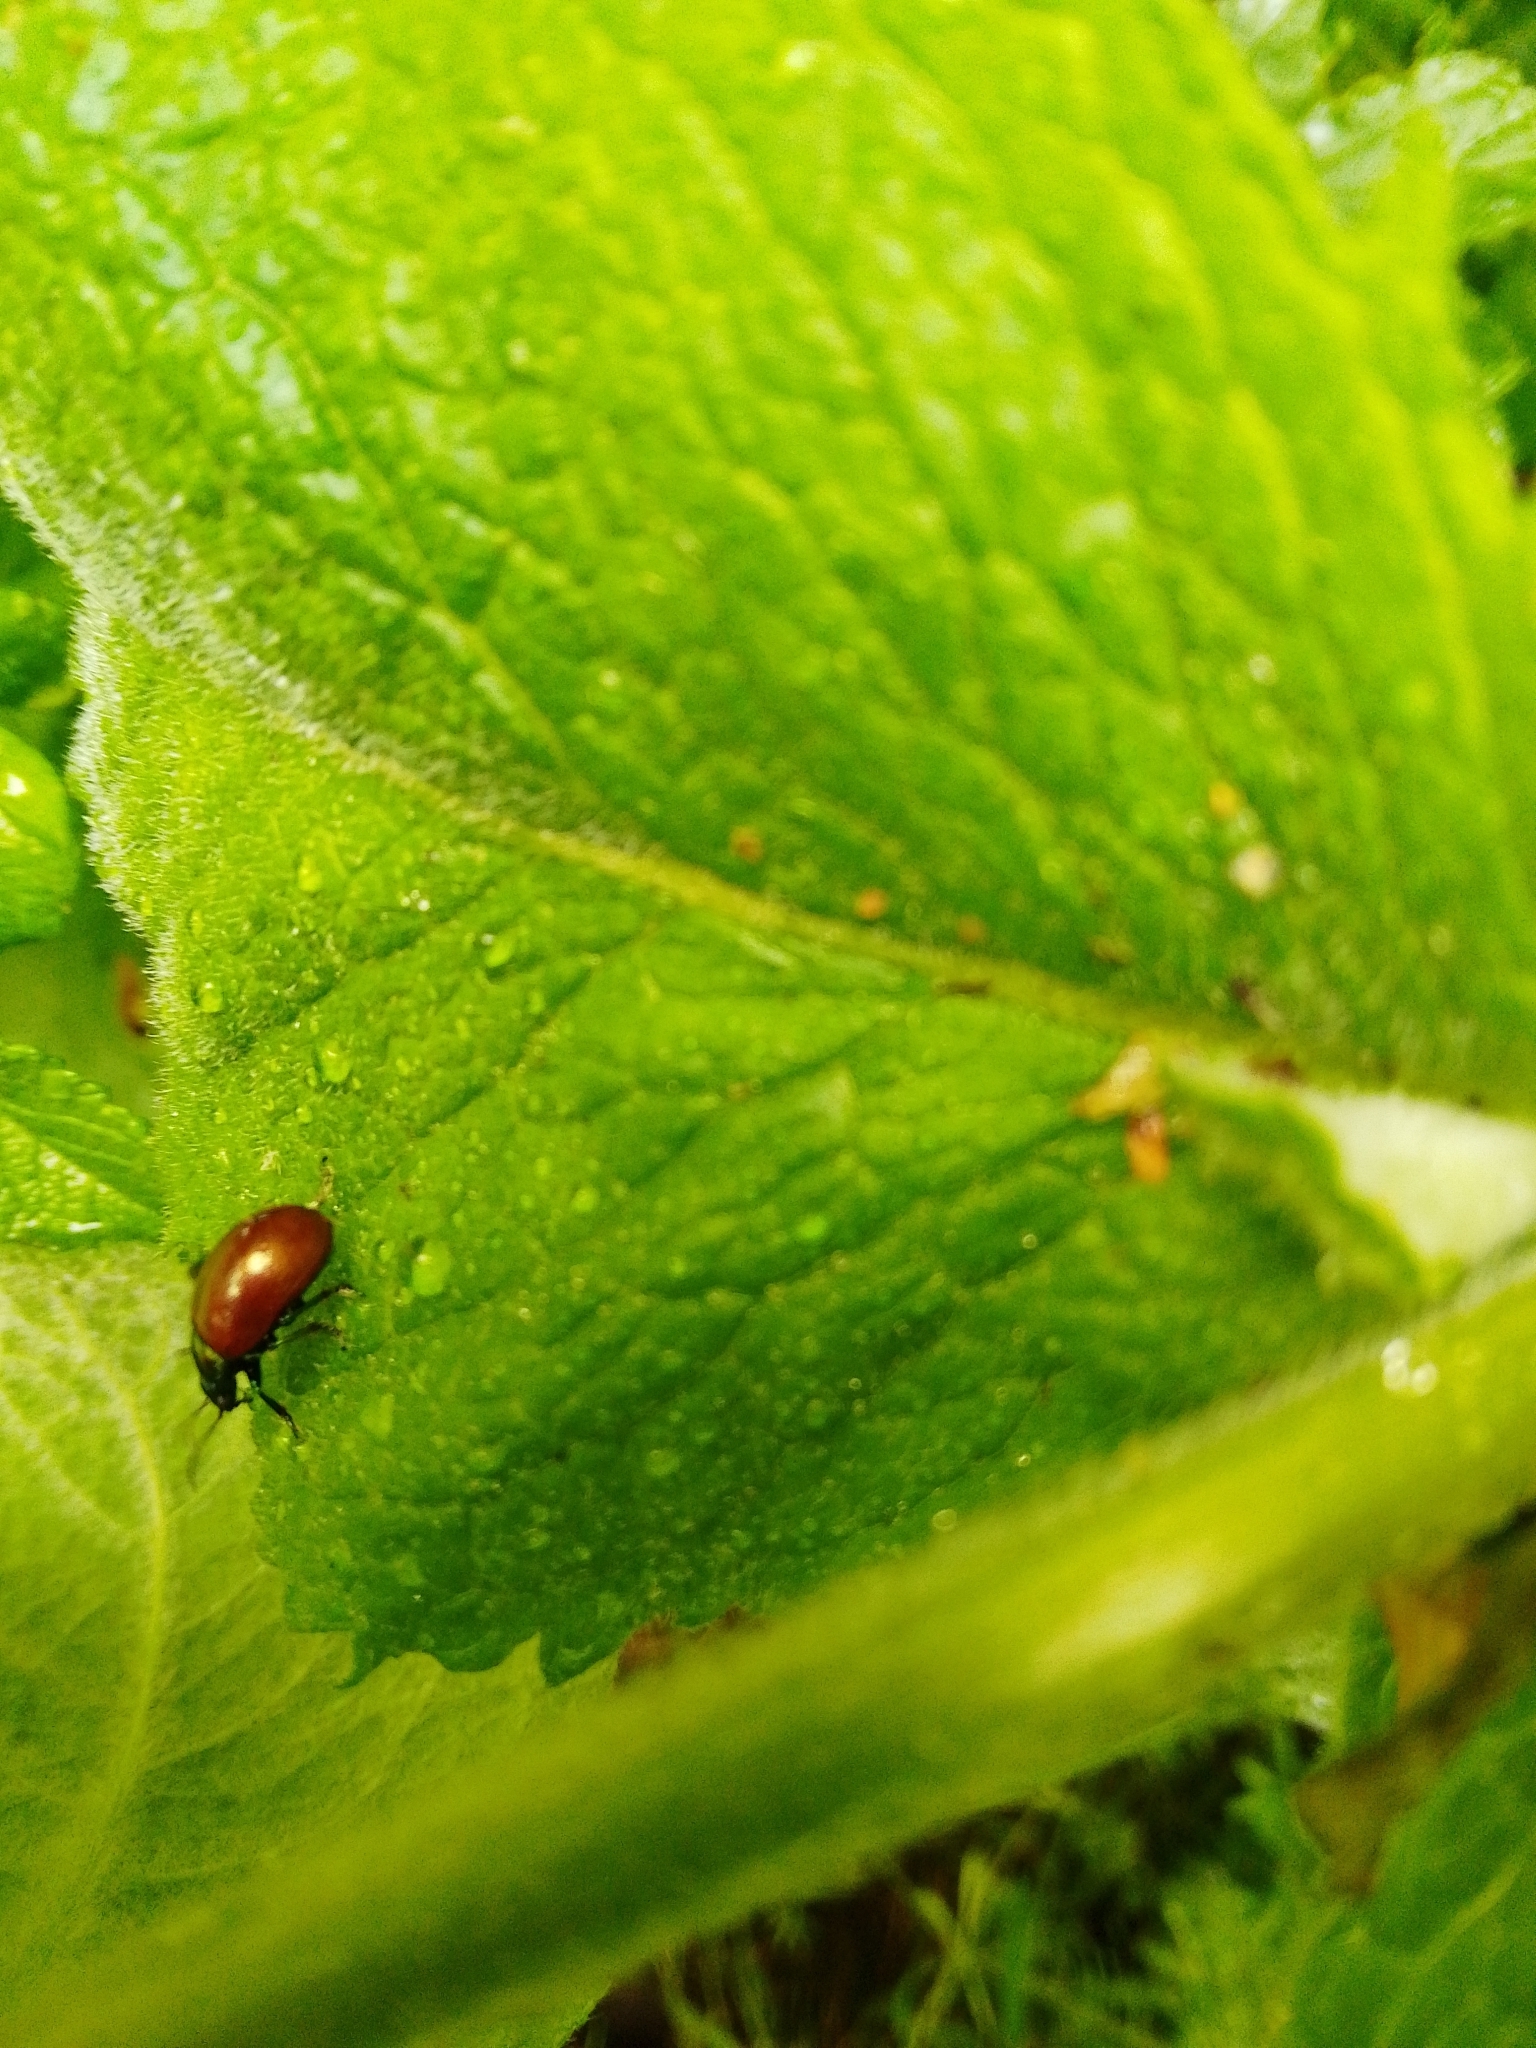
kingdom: Animalia
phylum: Arthropoda
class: Insecta
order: Coleoptera
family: Chrysomelidae
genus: Chrysomela
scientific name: Chrysomela polita
